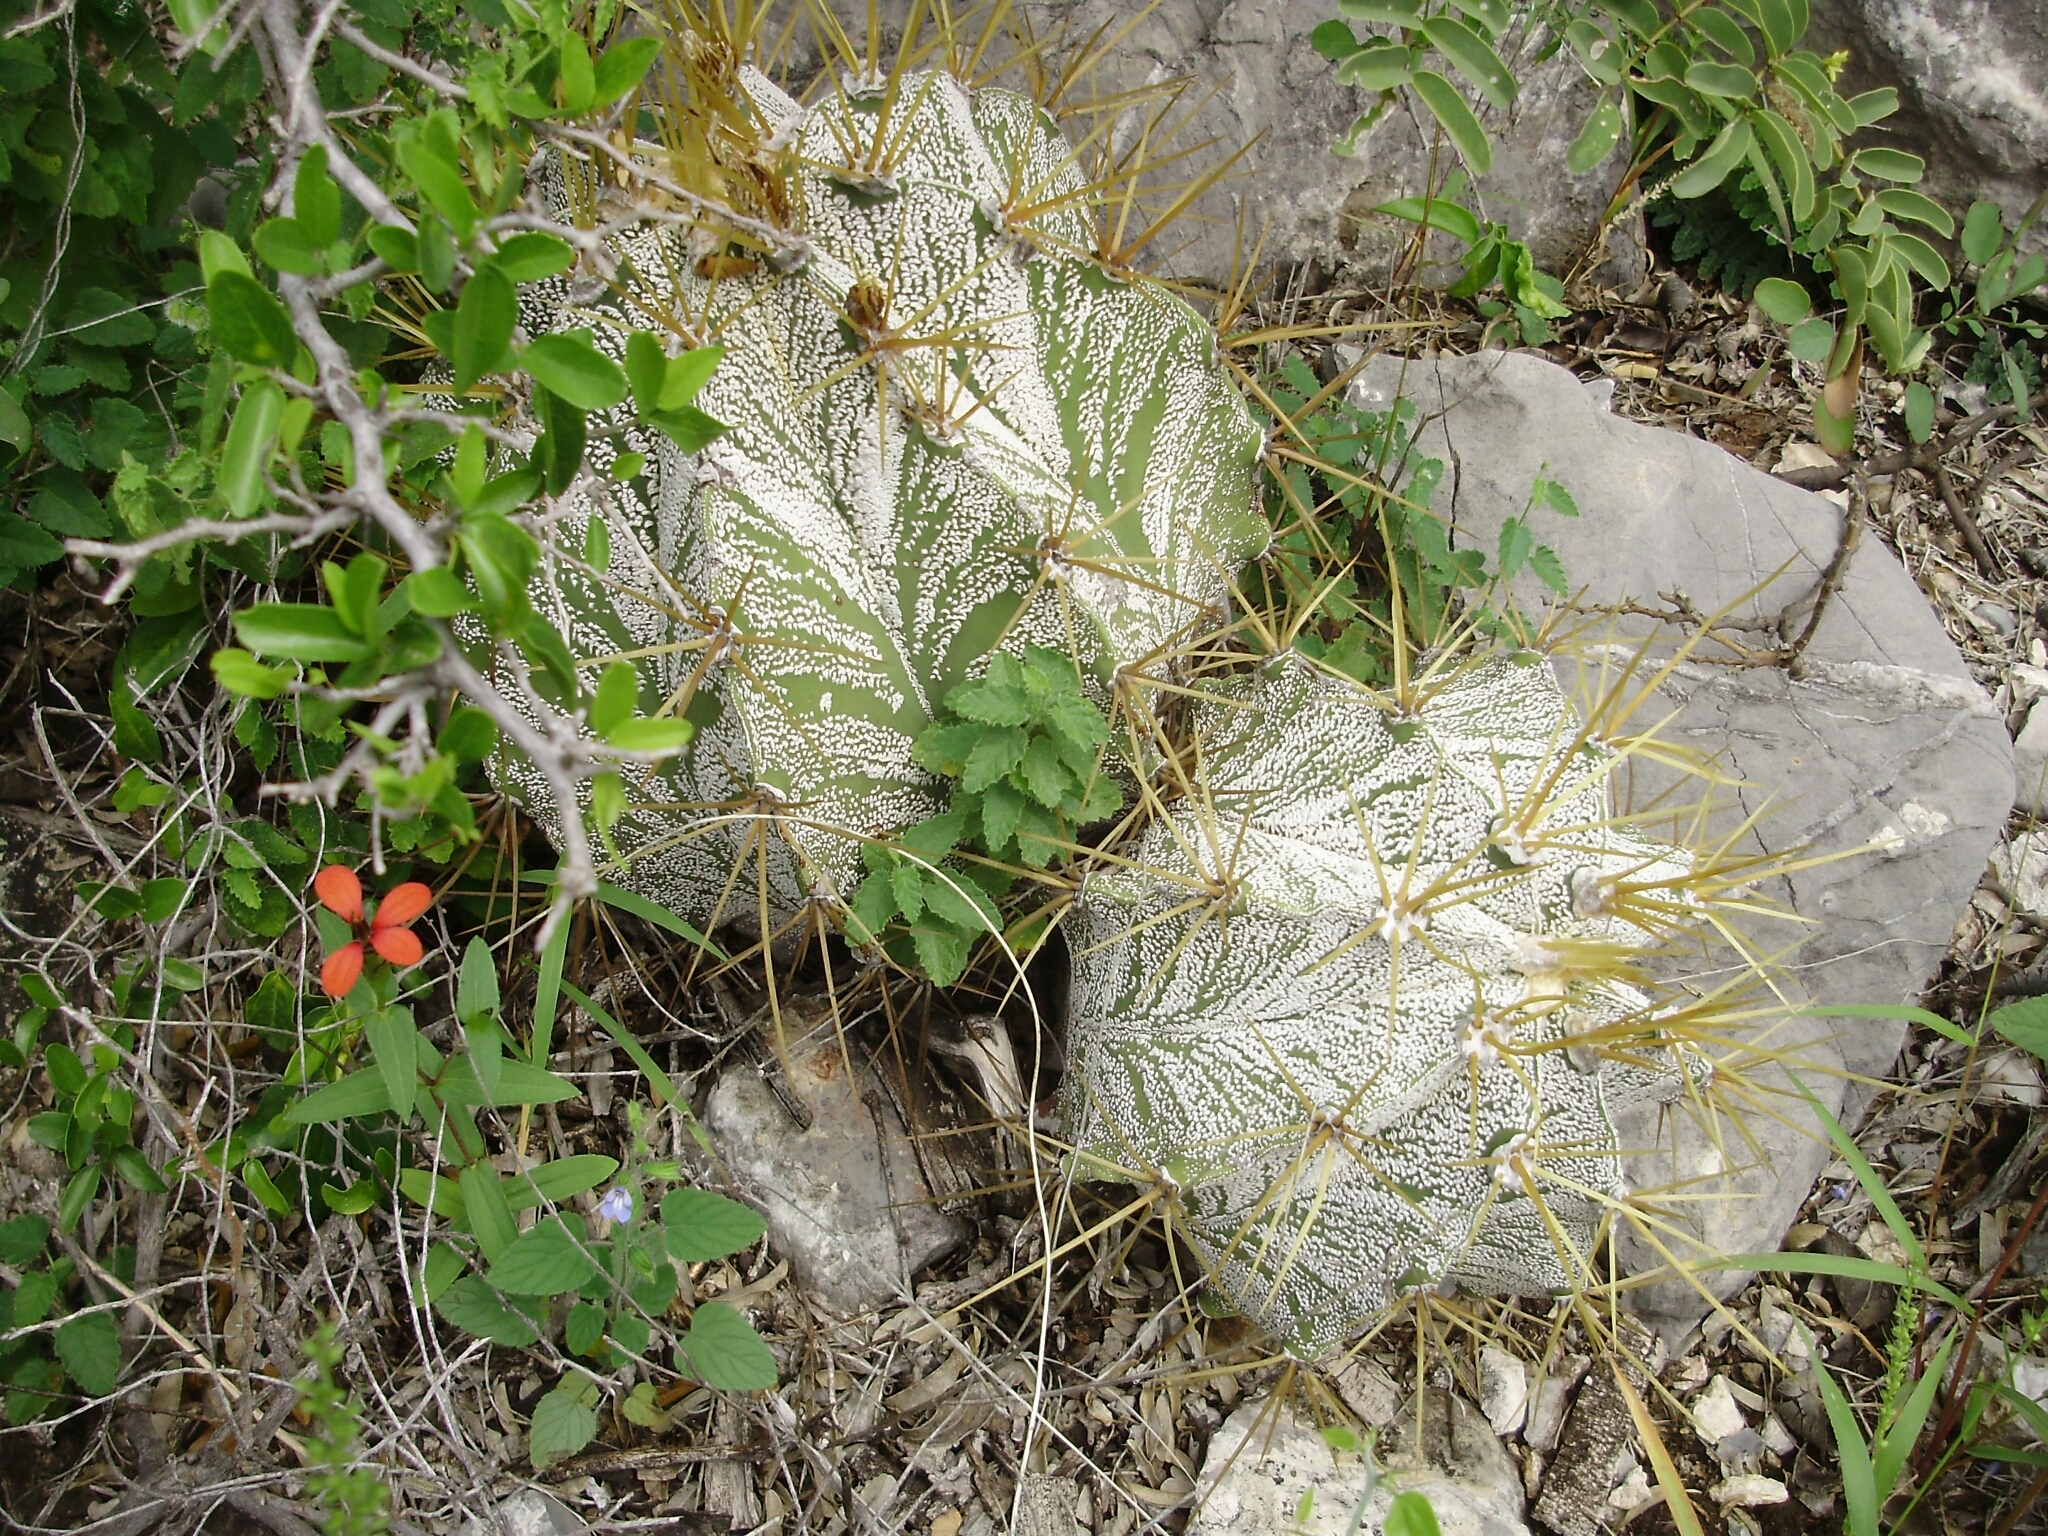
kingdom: Plantae
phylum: Tracheophyta
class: Magnoliopsida
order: Caryophyllales
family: Cactaceae
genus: Astrophytum
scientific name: Astrophytum ornatum
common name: Monk's-hood
